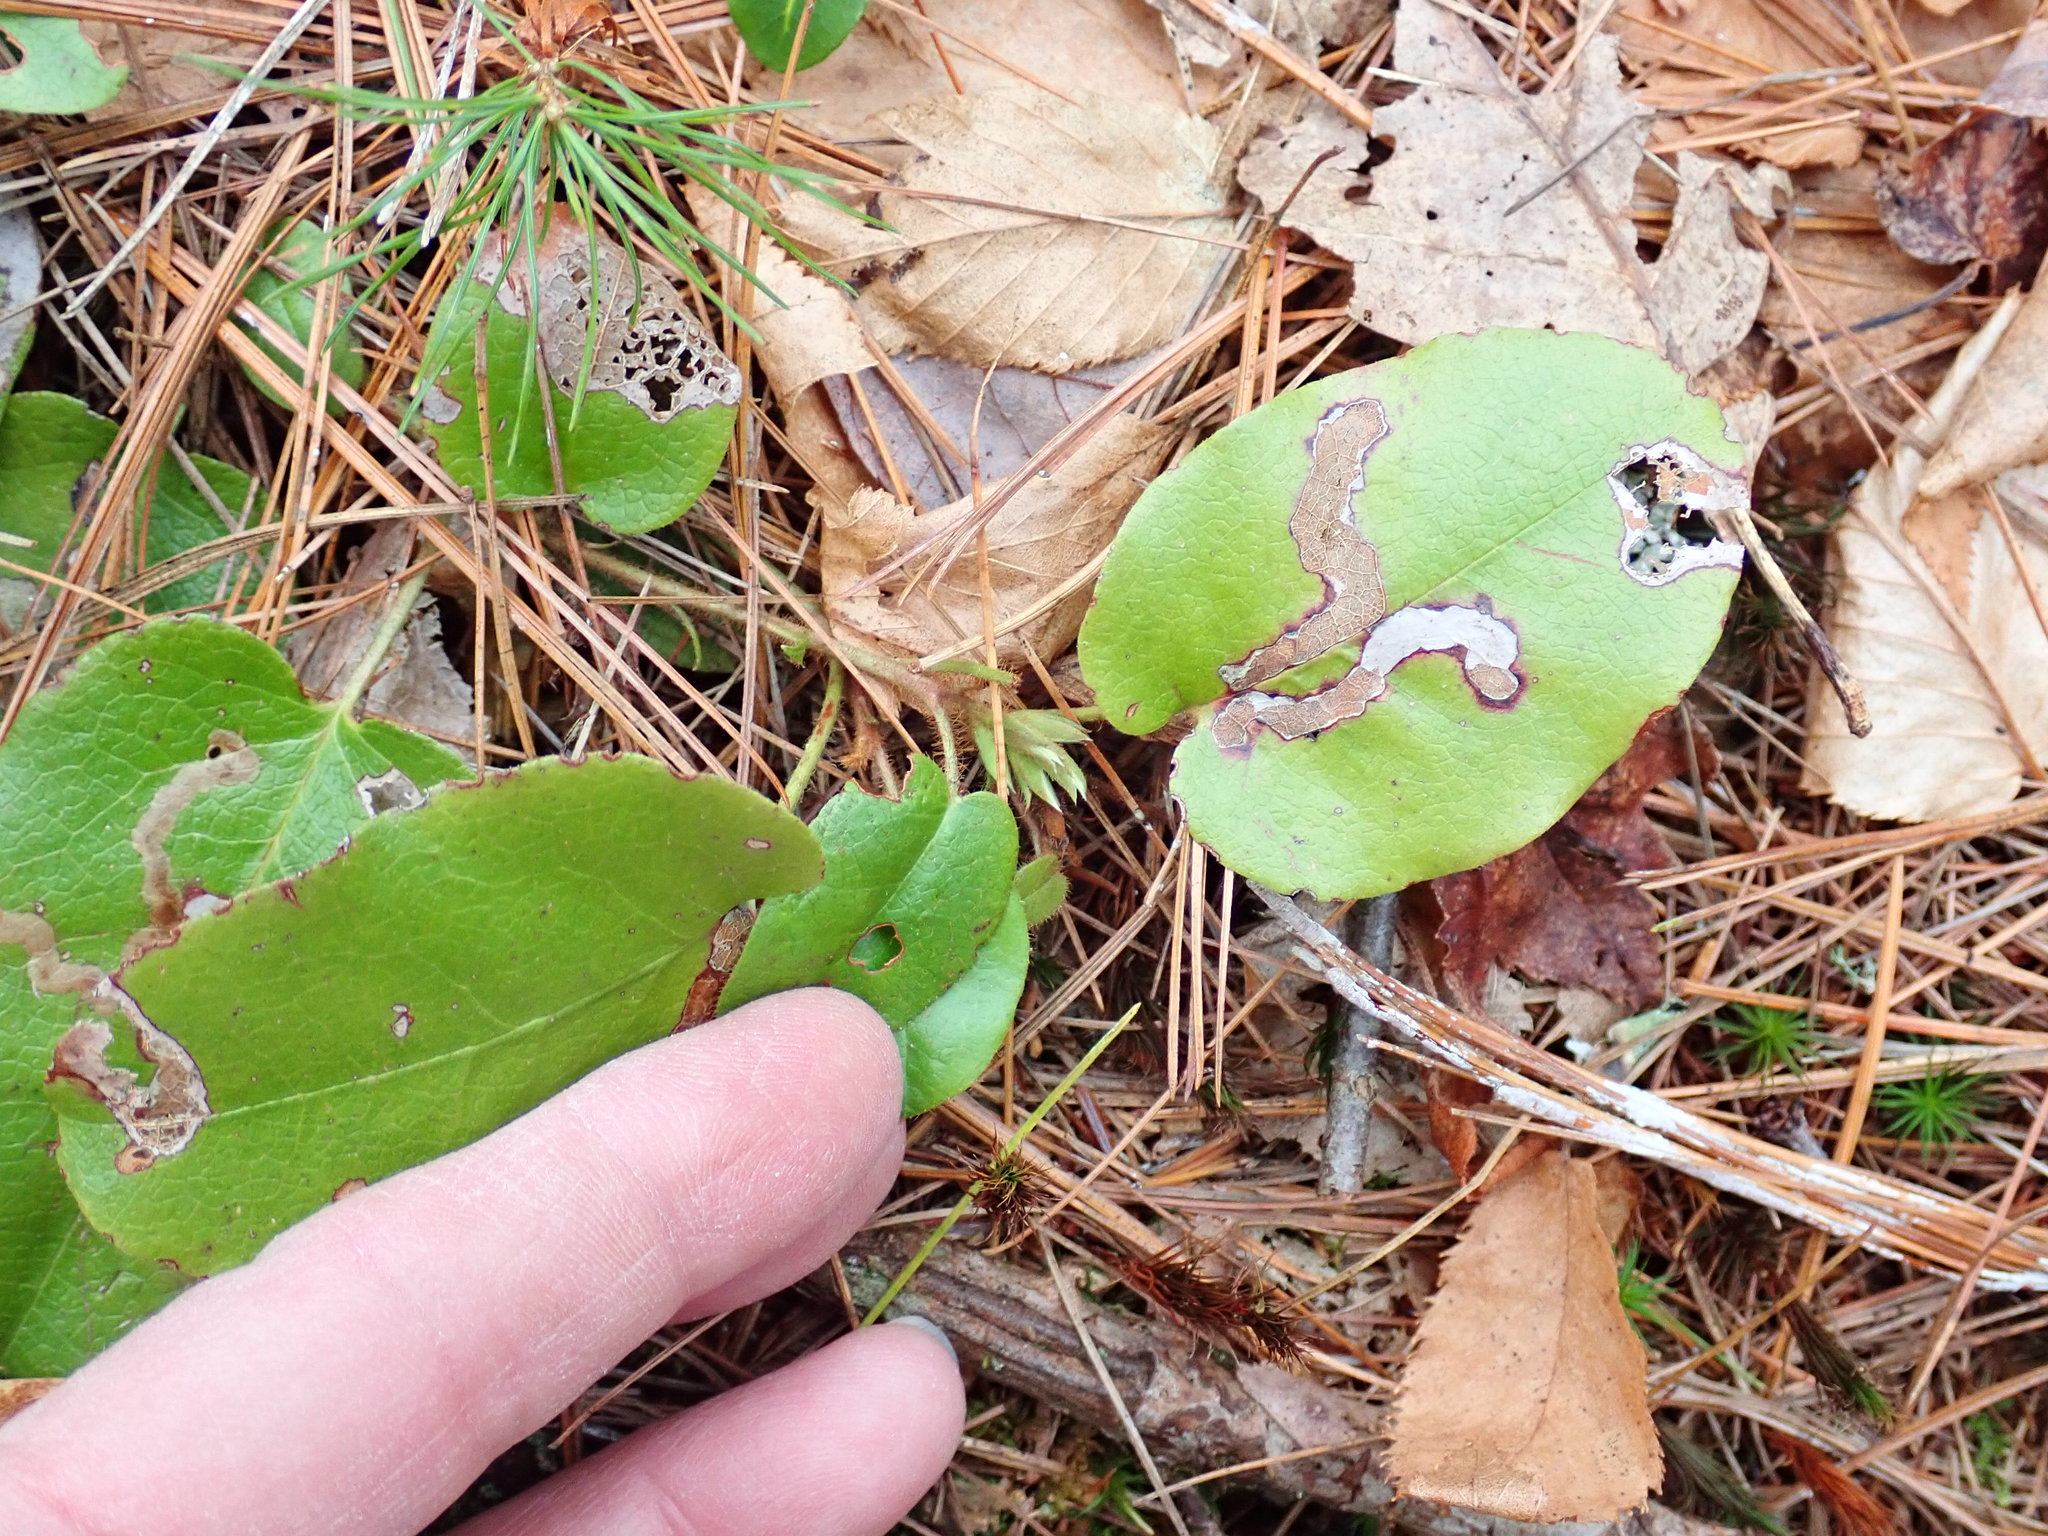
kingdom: Plantae
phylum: Tracheophyta
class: Magnoliopsida
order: Ericales
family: Ericaceae
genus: Epigaea
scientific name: Epigaea repens
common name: Gravelroot
